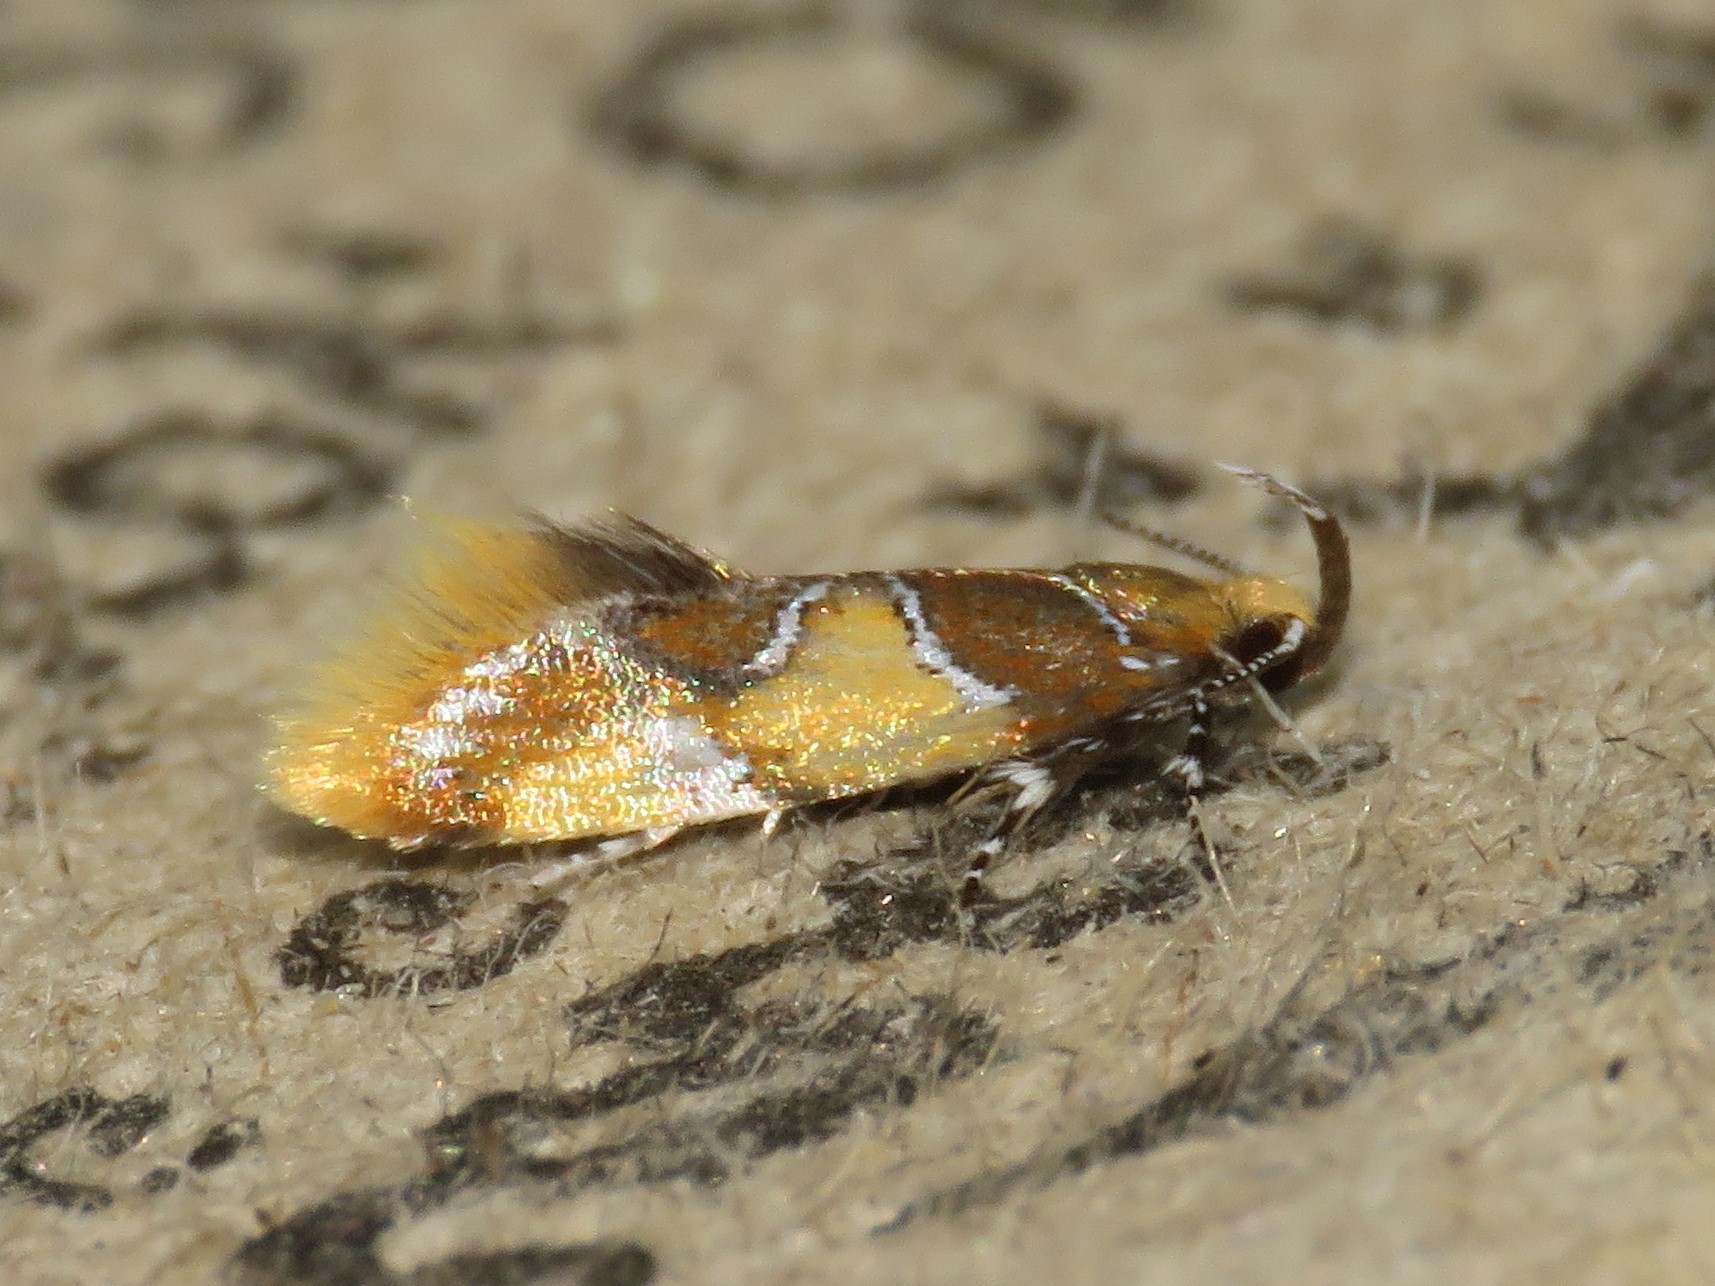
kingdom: Animalia
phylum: Arthropoda
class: Insecta
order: Lepidoptera
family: Oecophoridae
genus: Callima
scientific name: Callima argenticinctella
